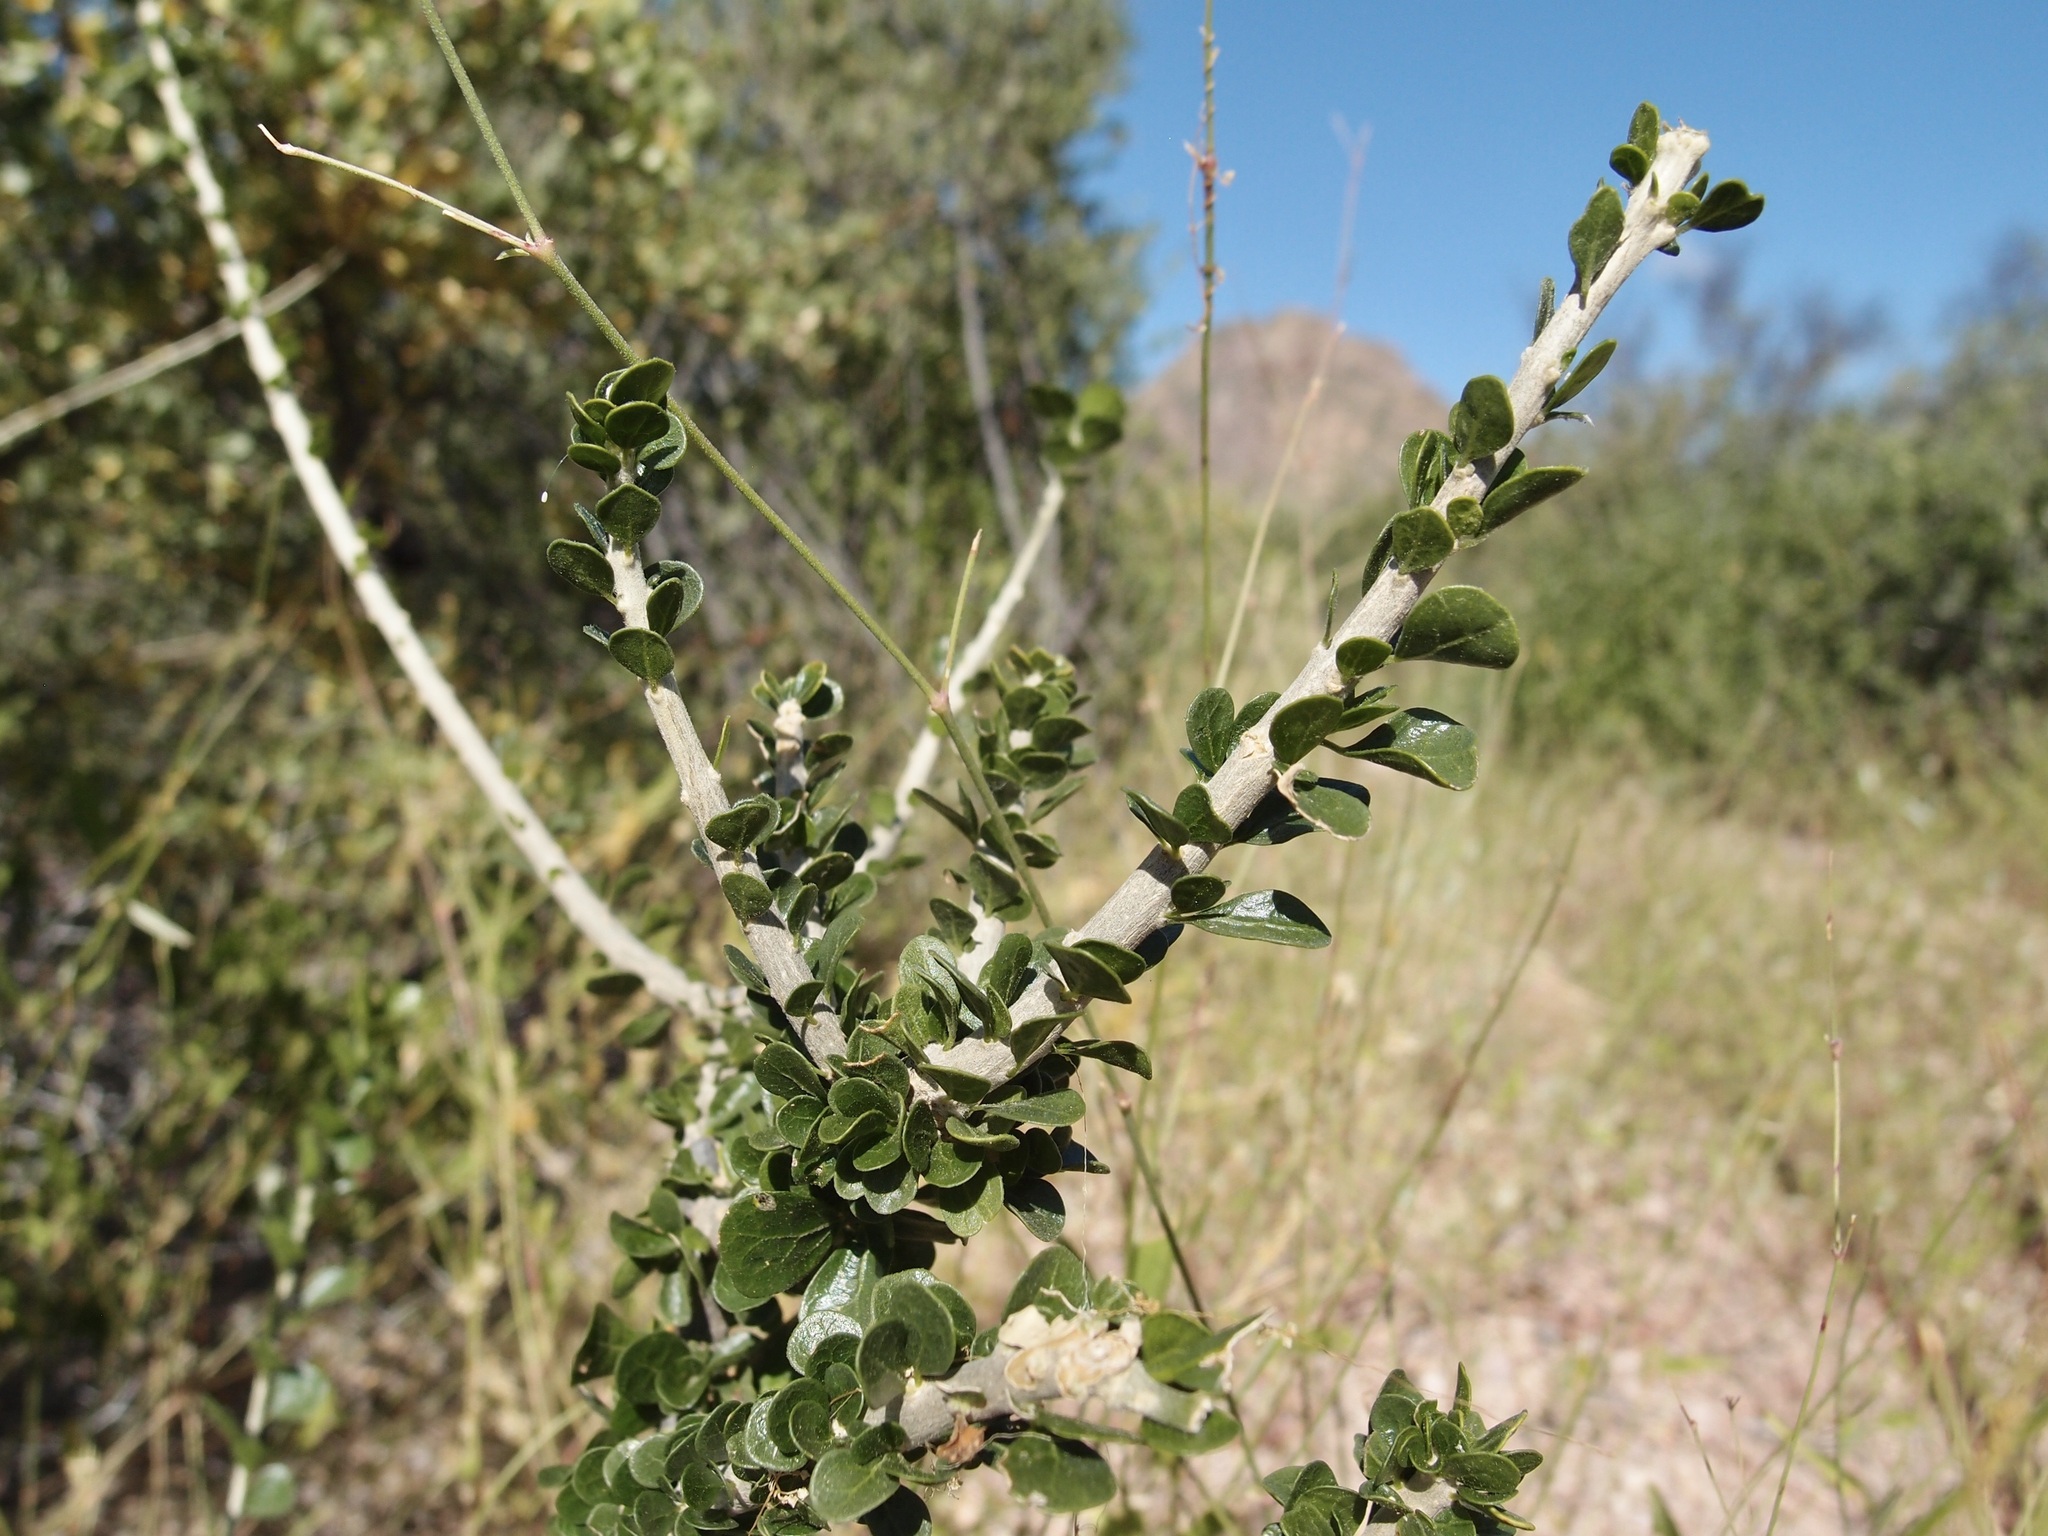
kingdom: Plantae
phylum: Tracheophyta
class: Magnoliopsida
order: Malpighiales
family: Euphorbiaceae
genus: Adelia
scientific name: Adelia obovata
